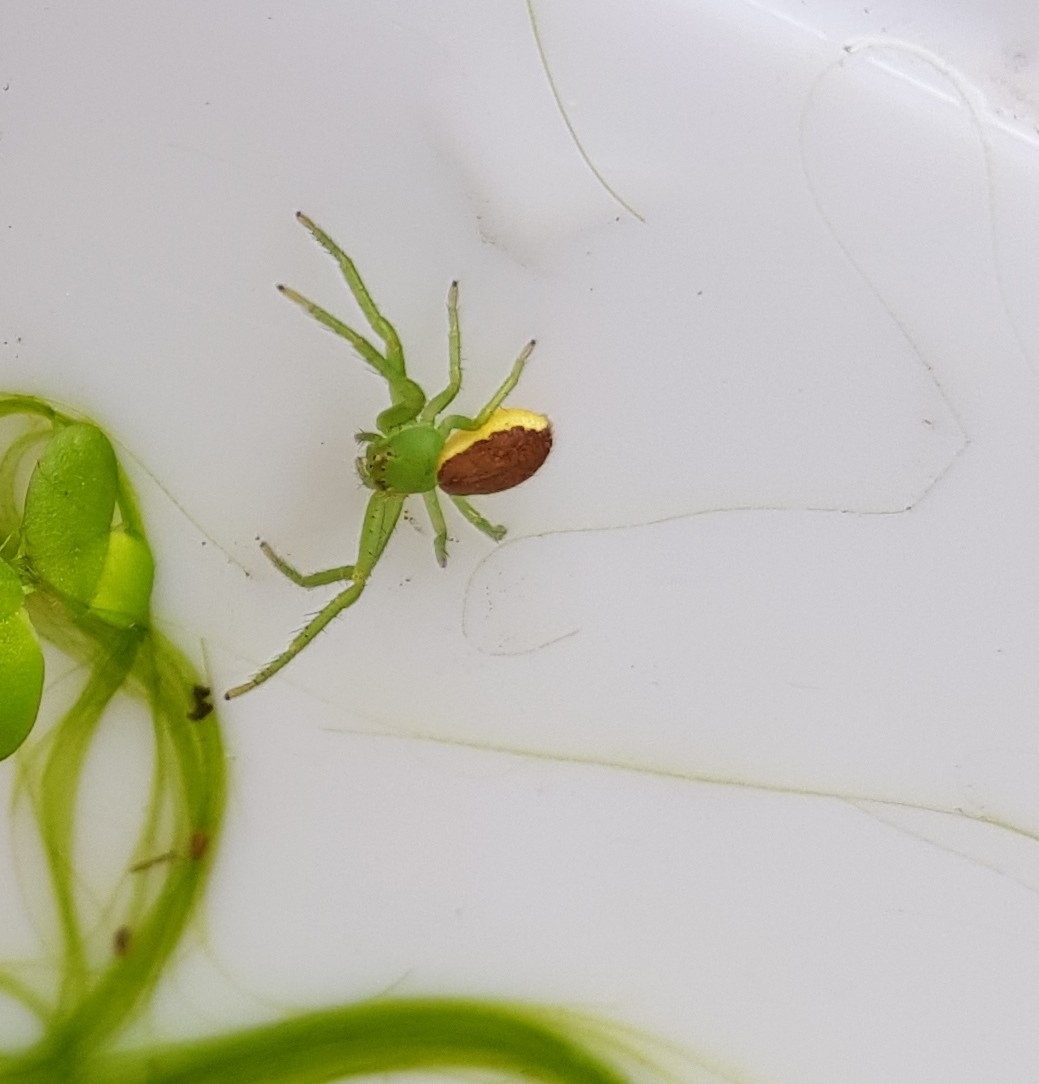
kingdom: Animalia
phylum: Arthropoda
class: Arachnida
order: Araneae
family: Thomisidae
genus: Diaea
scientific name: Diaea dorsata
